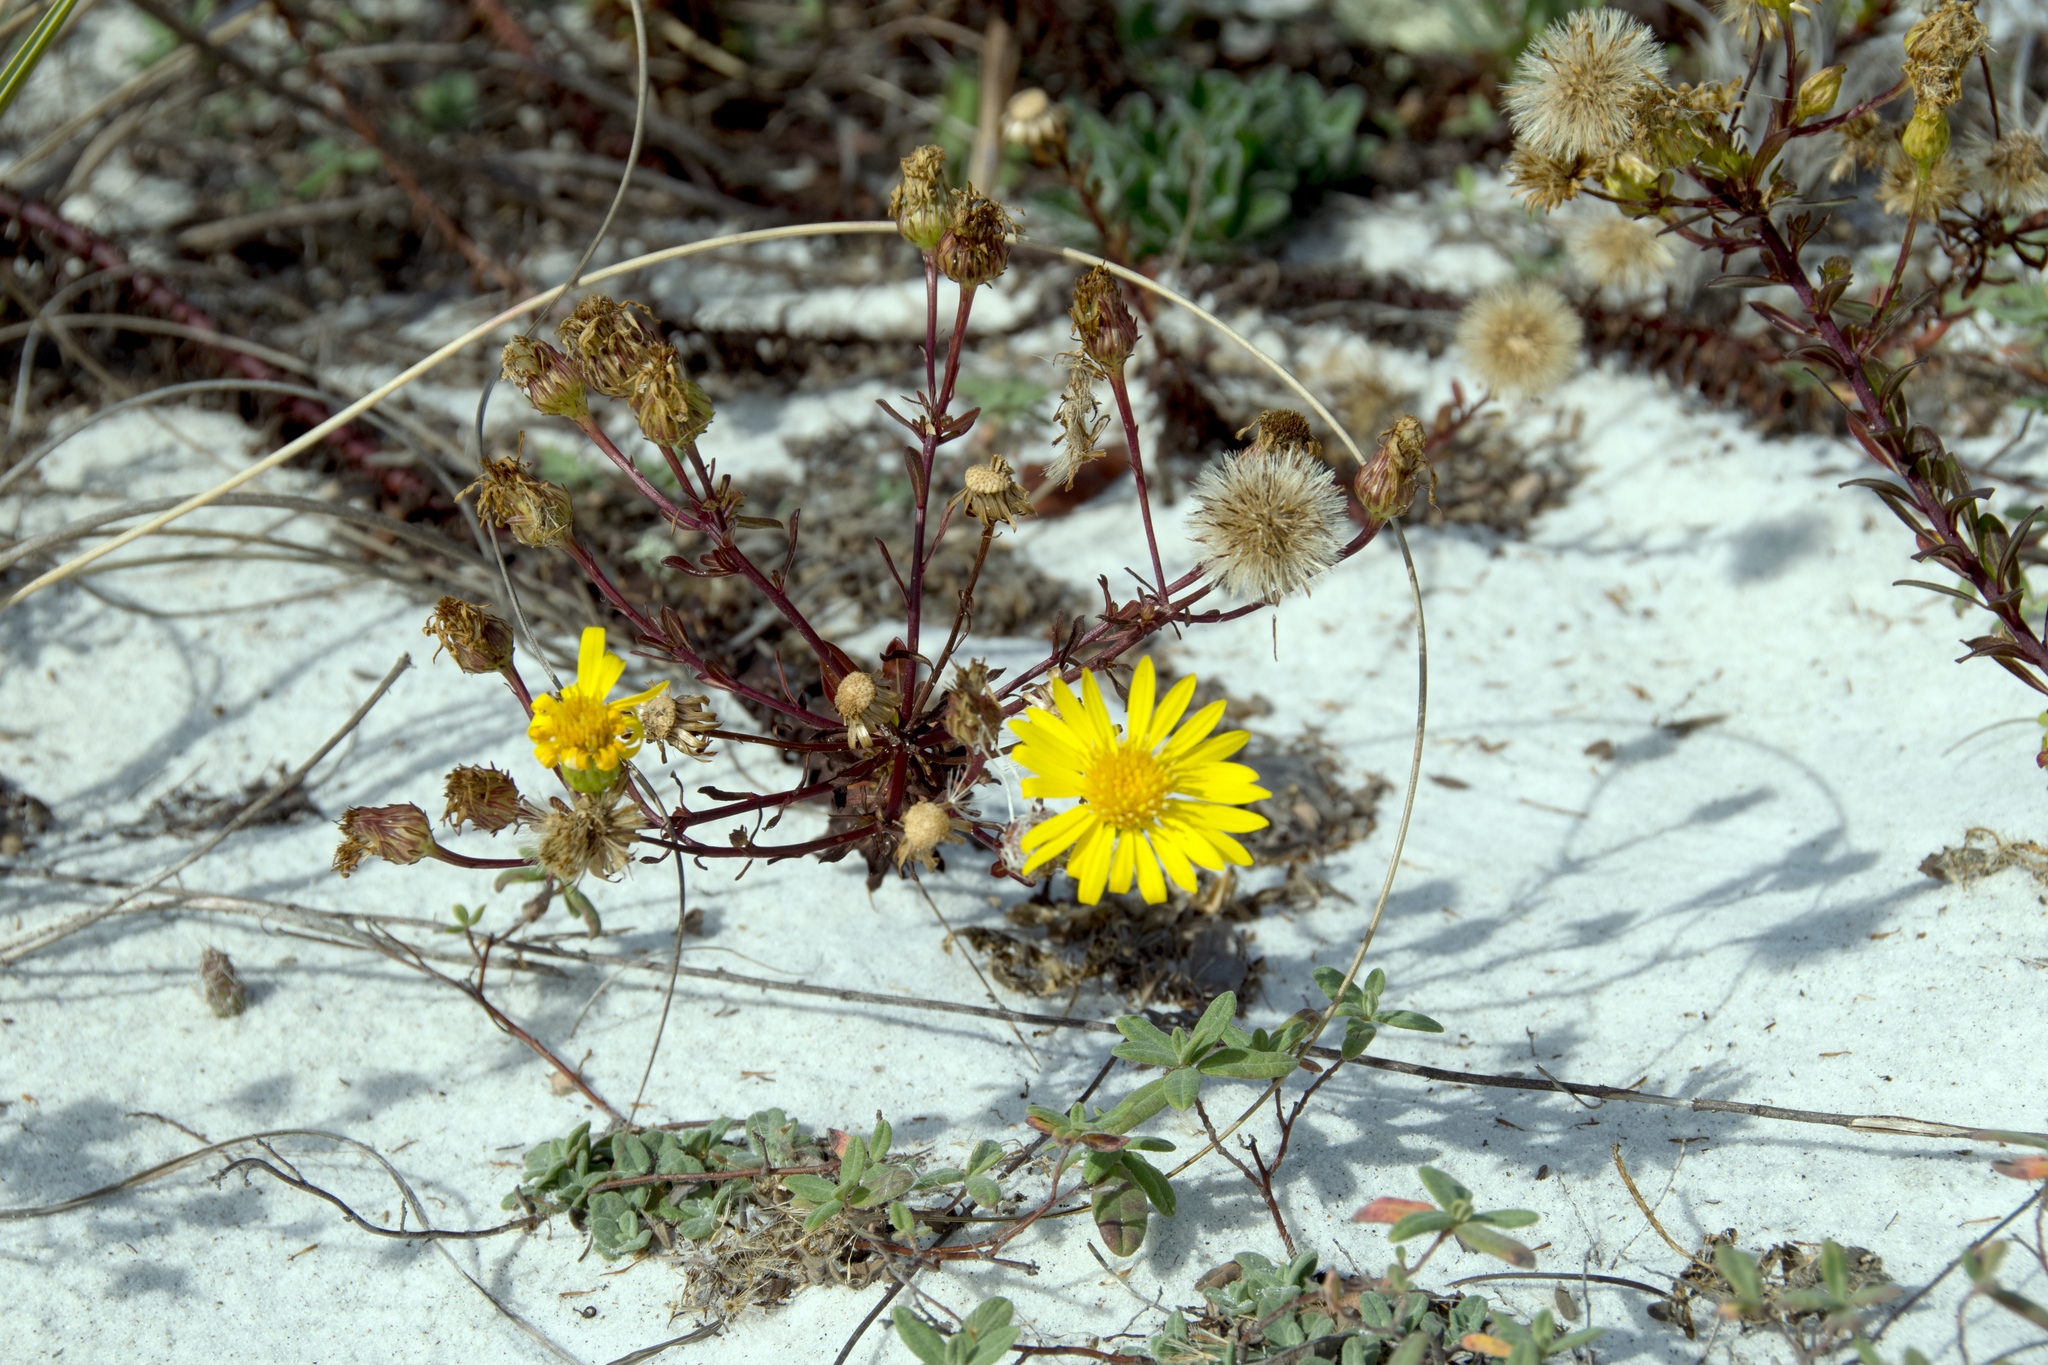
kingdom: Plantae
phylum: Tracheophyta
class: Magnoliopsida
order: Asterales
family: Asteraceae
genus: Chrysopsis
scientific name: Chrysopsis godfreyi
